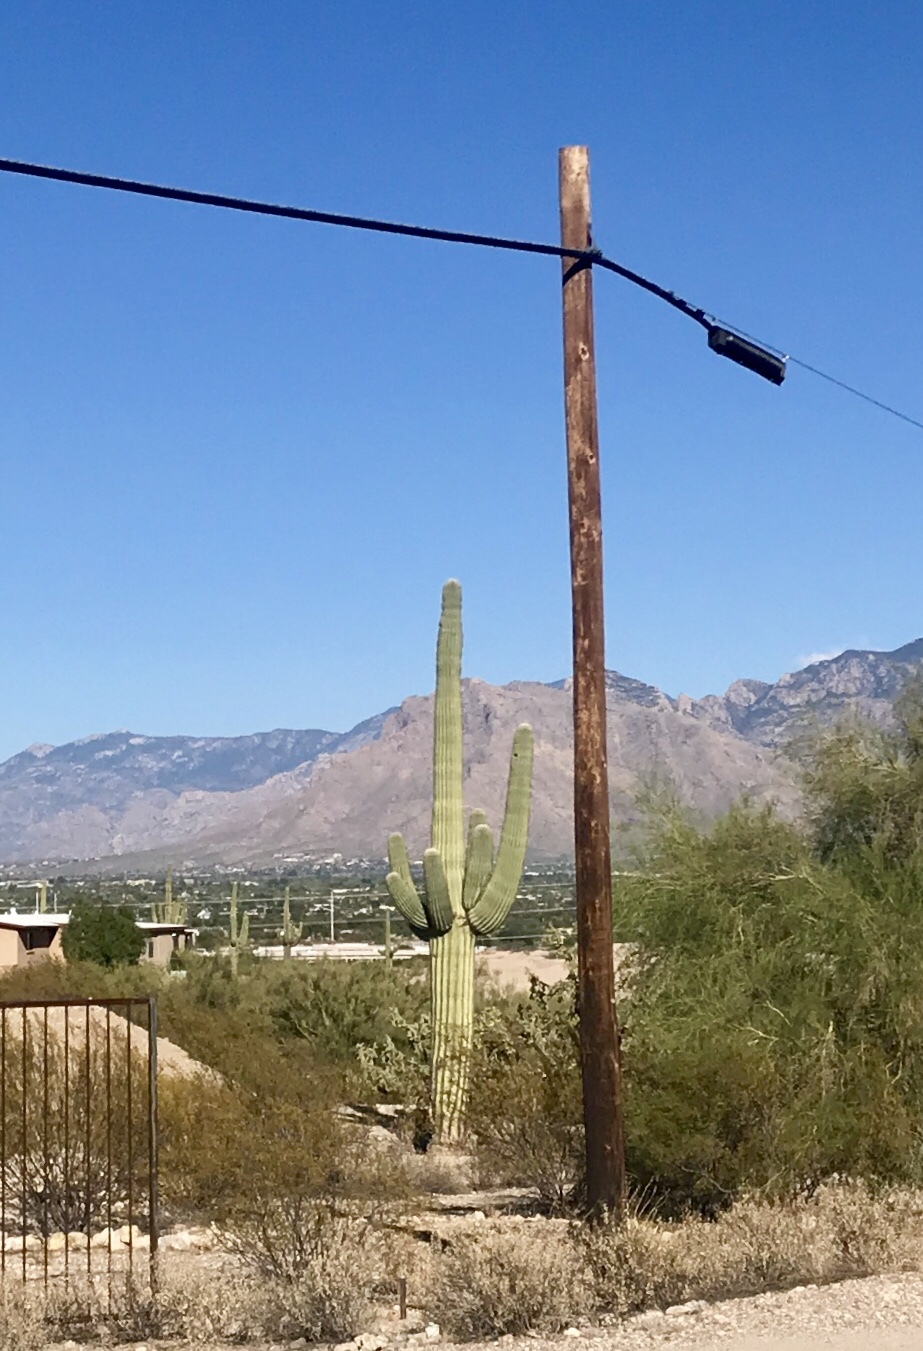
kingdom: Plantae
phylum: Tracheophyta
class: Magnoliopsida
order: Caryophyllales
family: Cactaceae
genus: Carnegiea
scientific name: Carnegiea gigantea
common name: Saguaro
